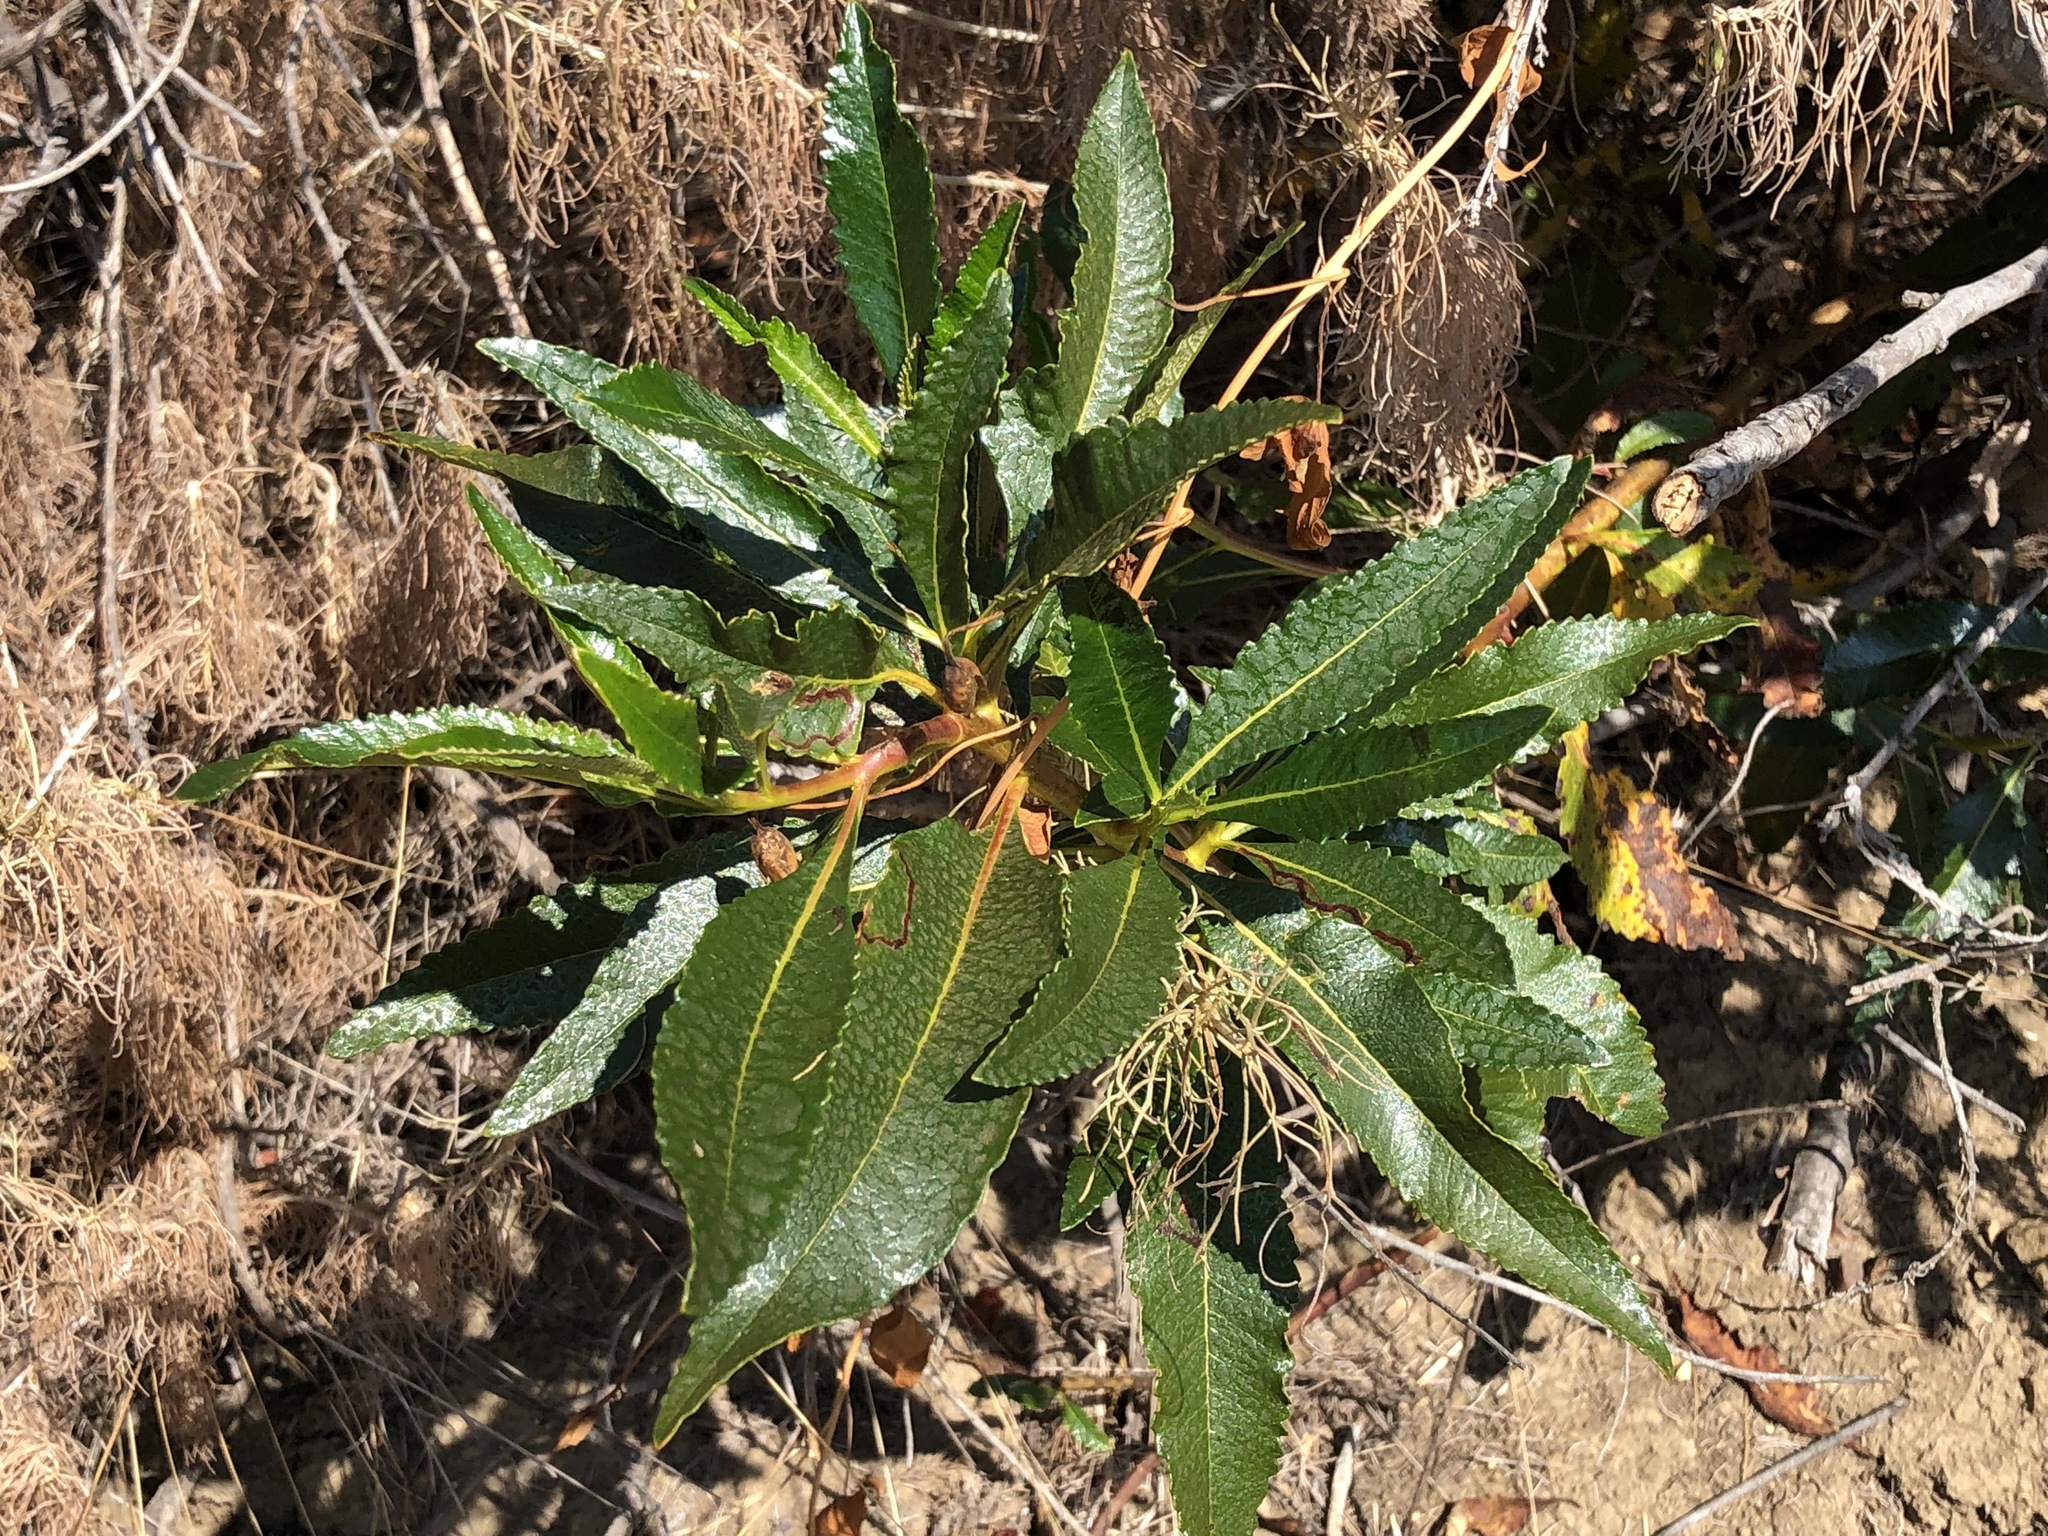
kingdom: Plantae
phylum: Tracheophyta
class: Magnoliopsida
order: Boraginales
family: Namaceae
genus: Eriodictyon
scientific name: Eriodictyon californicum
